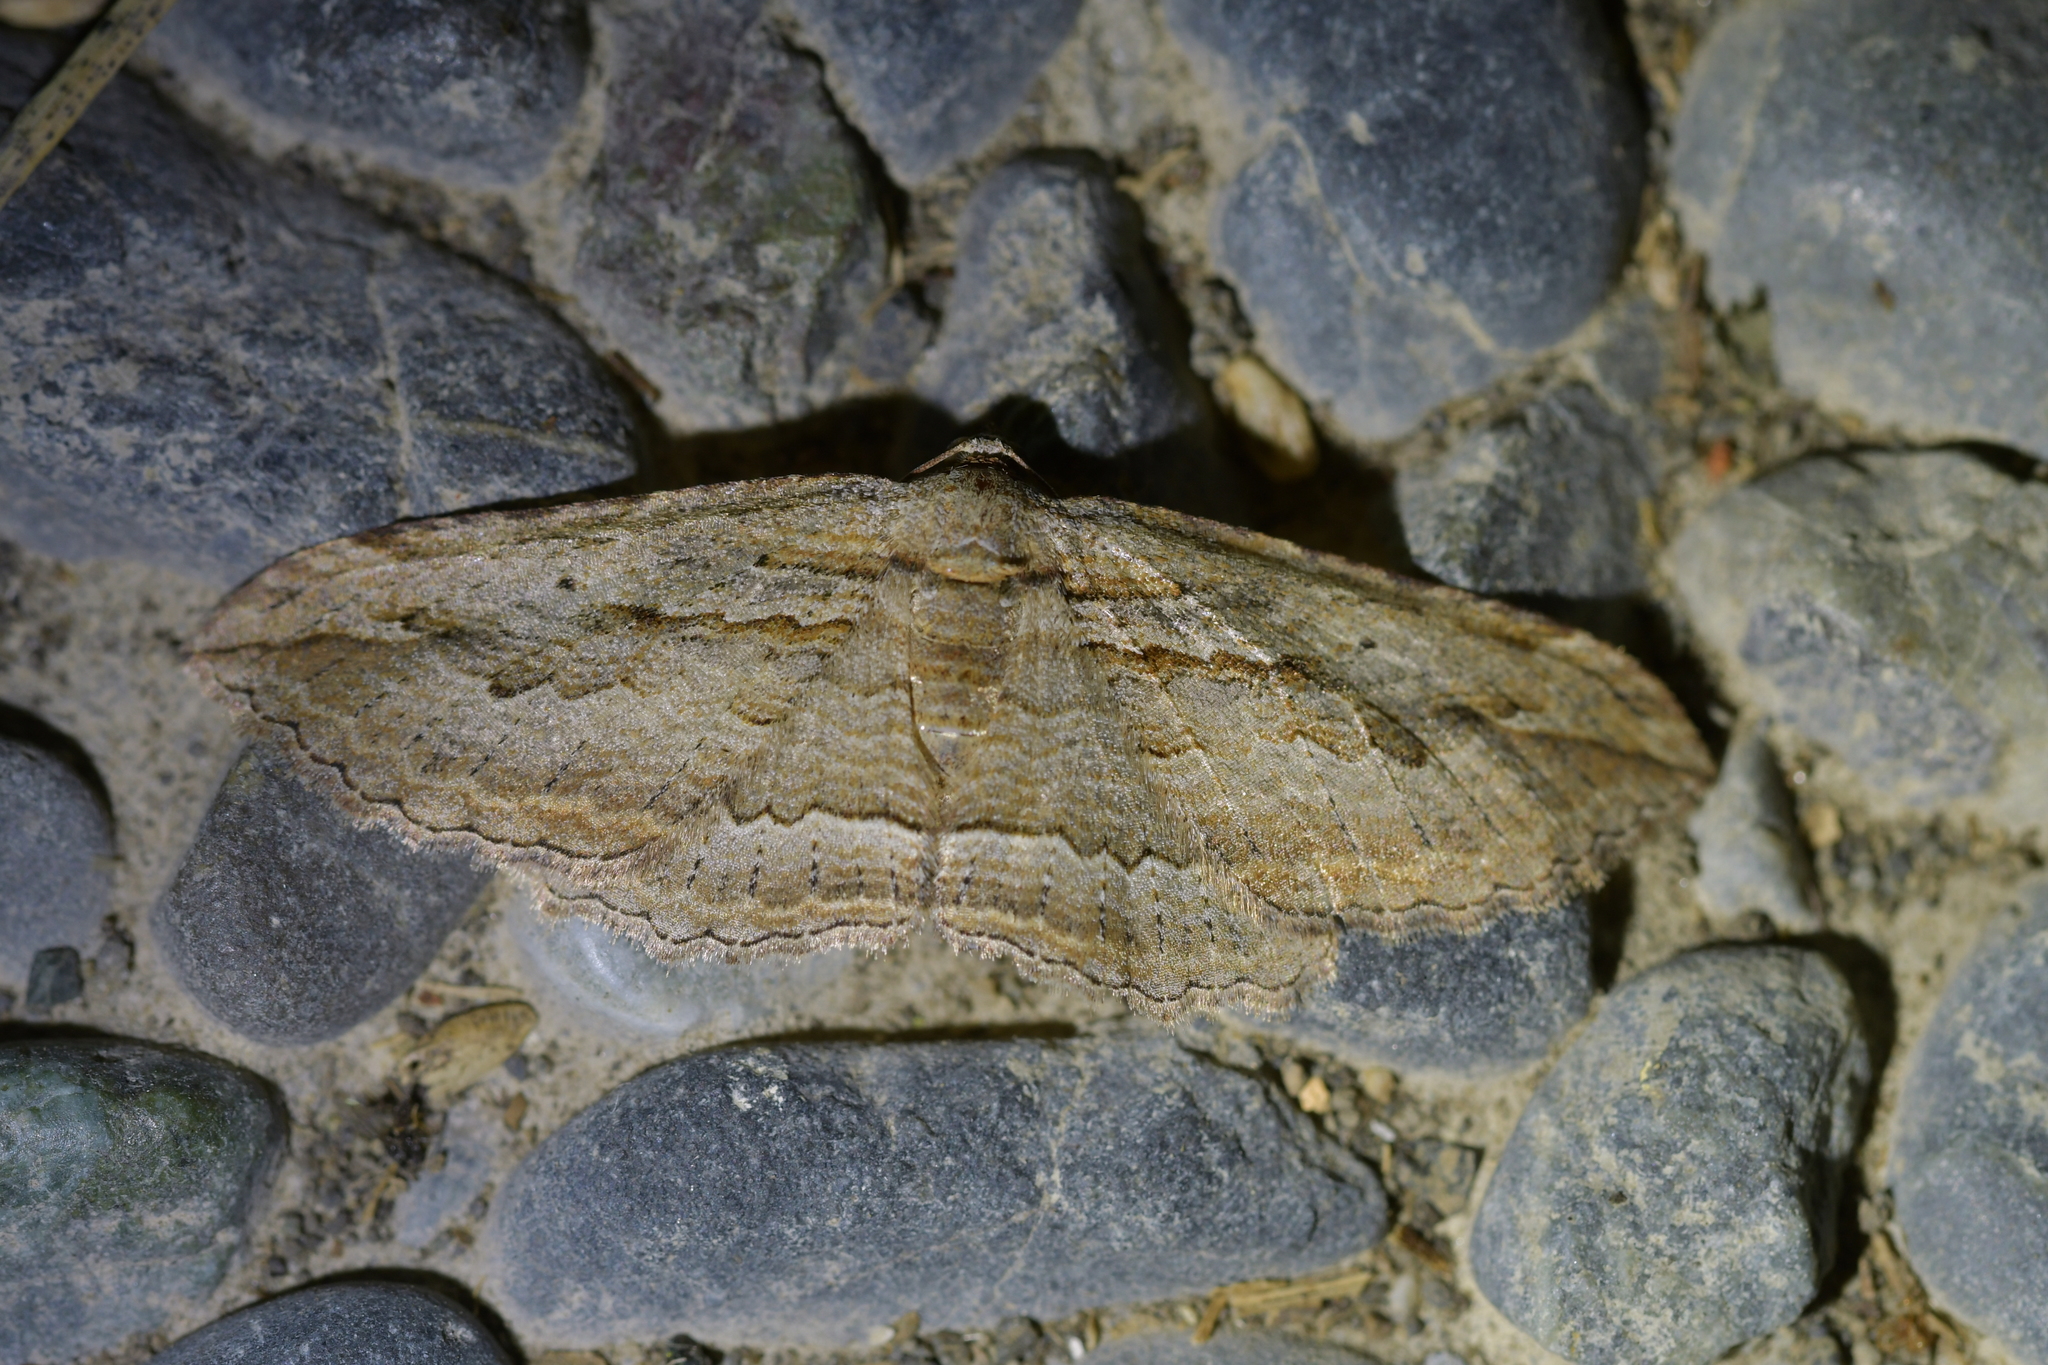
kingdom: Animalia
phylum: Arthropoda
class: Insecta
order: Lepidoptera
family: Geometridae
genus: Austrocidaria
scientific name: Austrocidaria gobiata
